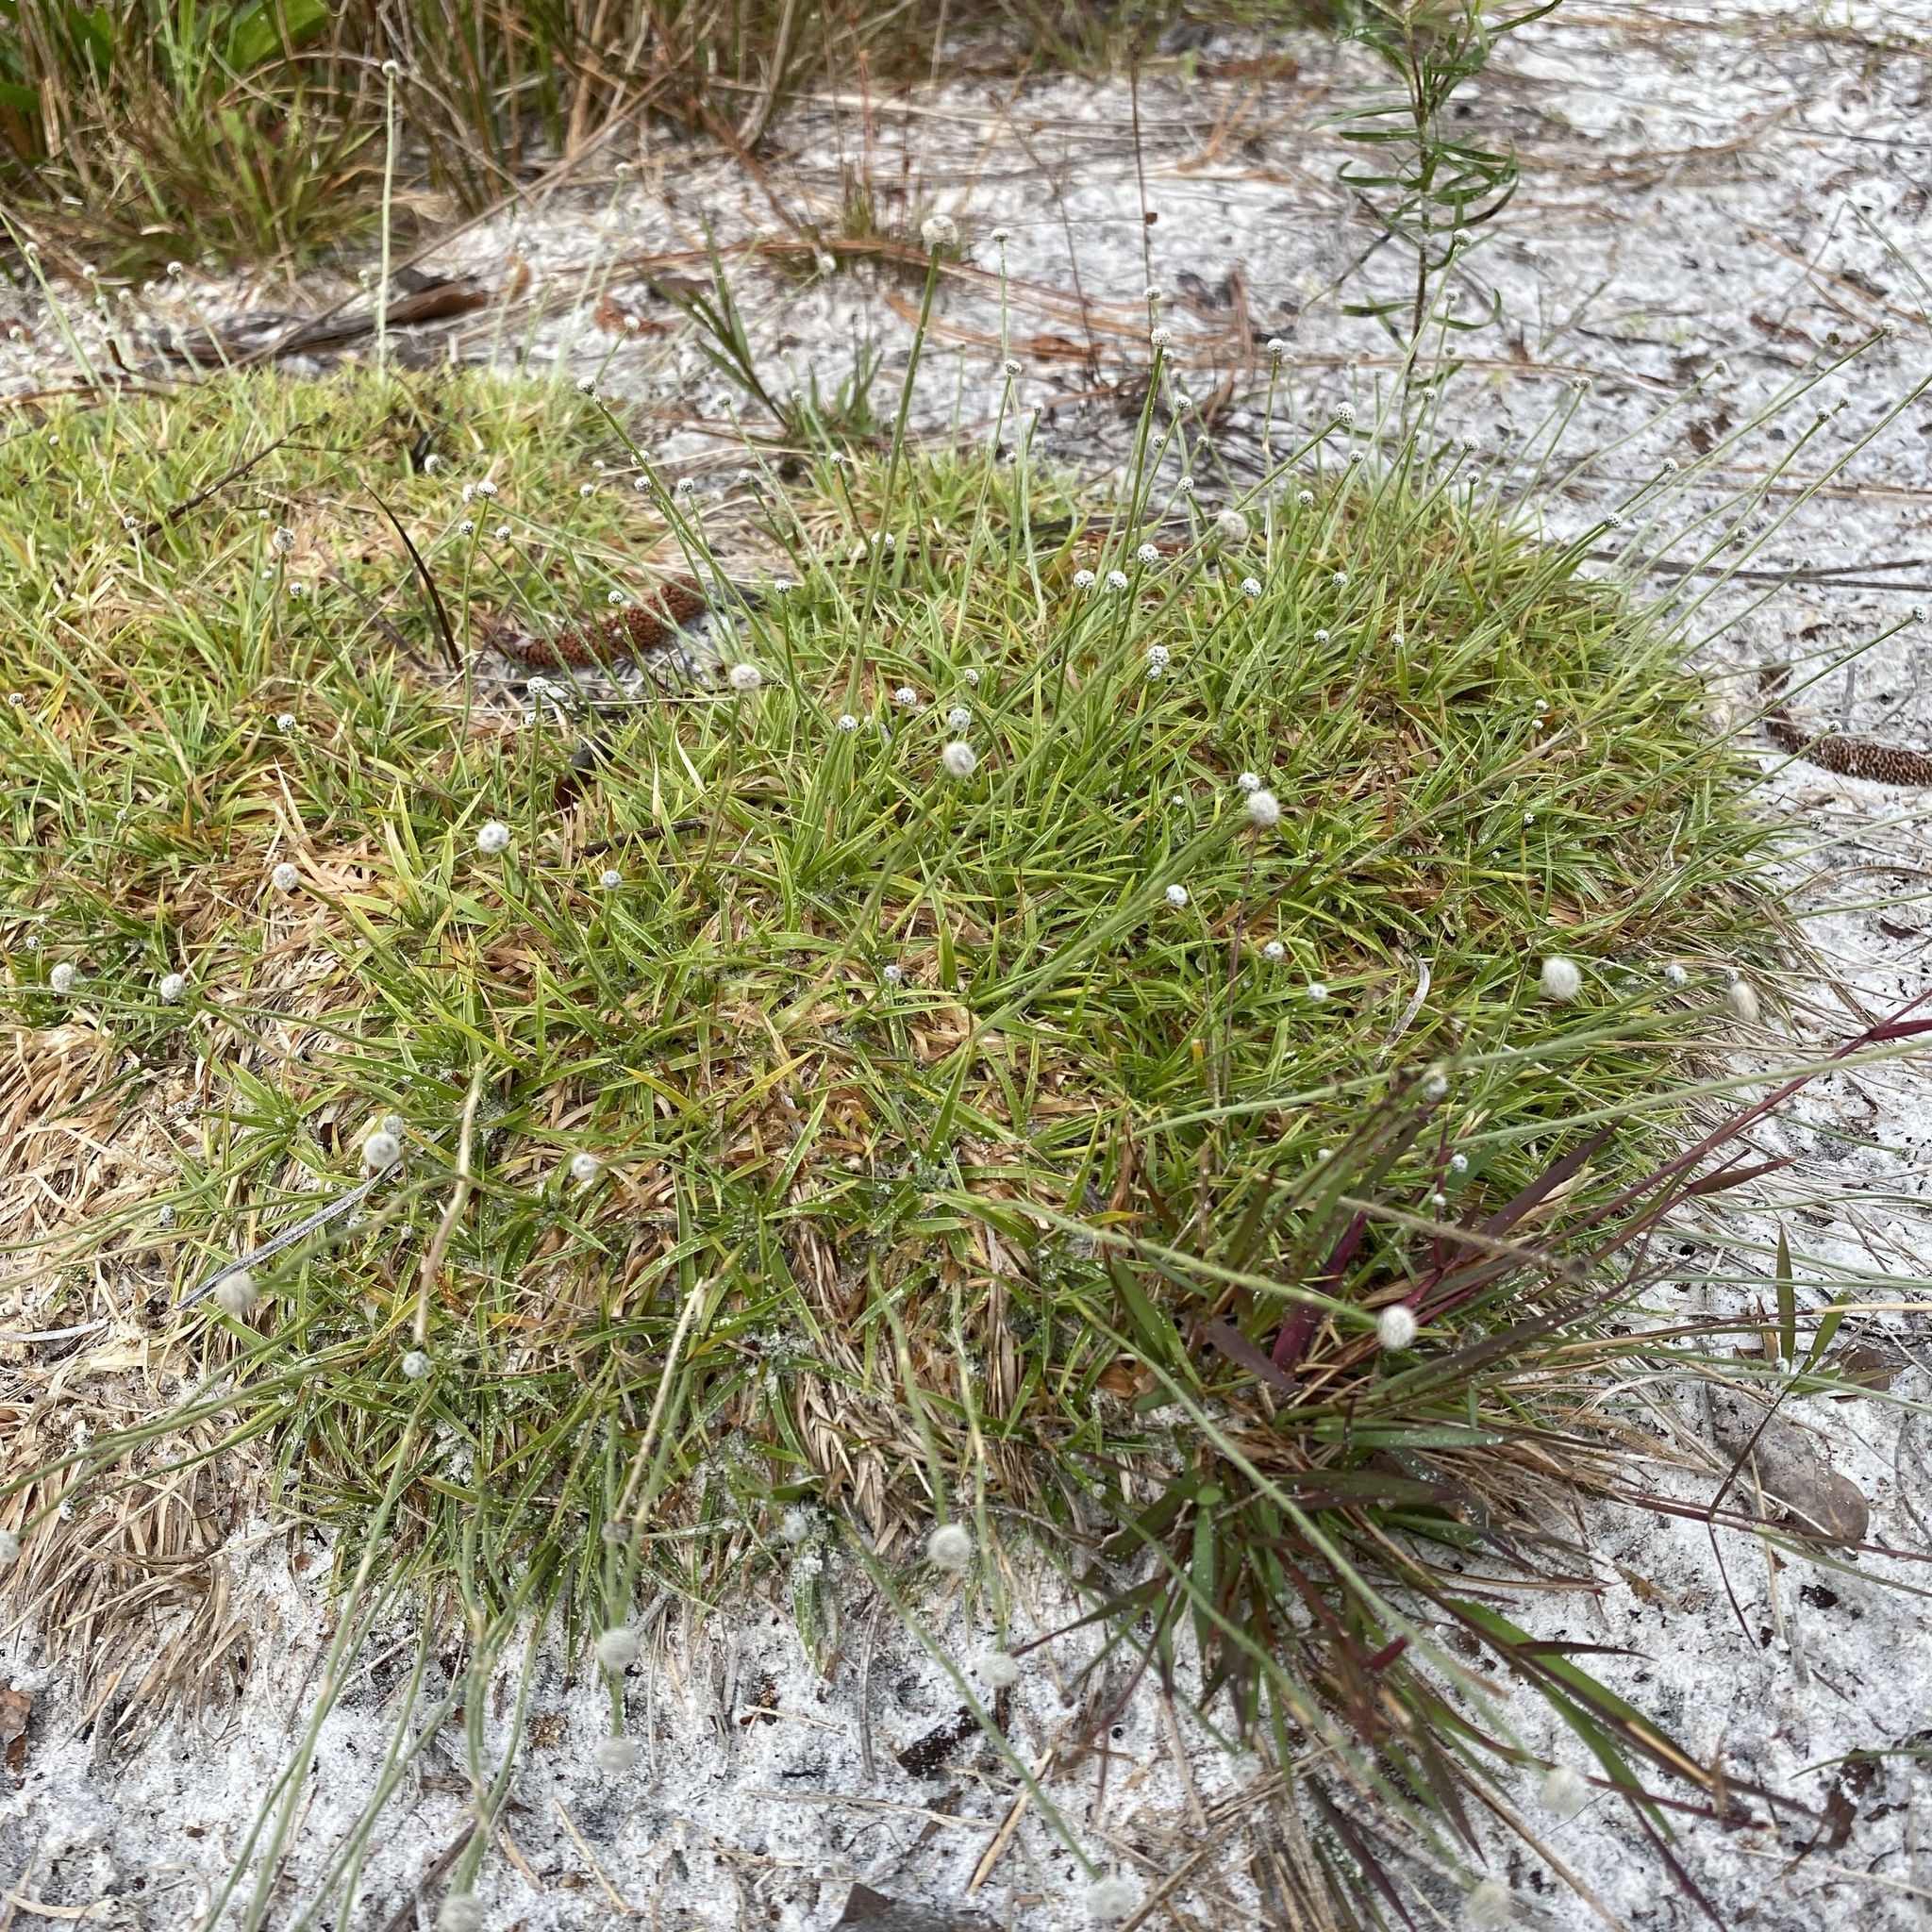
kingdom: Plantae
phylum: Tracheophyta
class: Liliopsida
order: Poales
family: Eriocaulaceae
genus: Paepalanthus
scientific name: Paepalanthus beyrichianus
